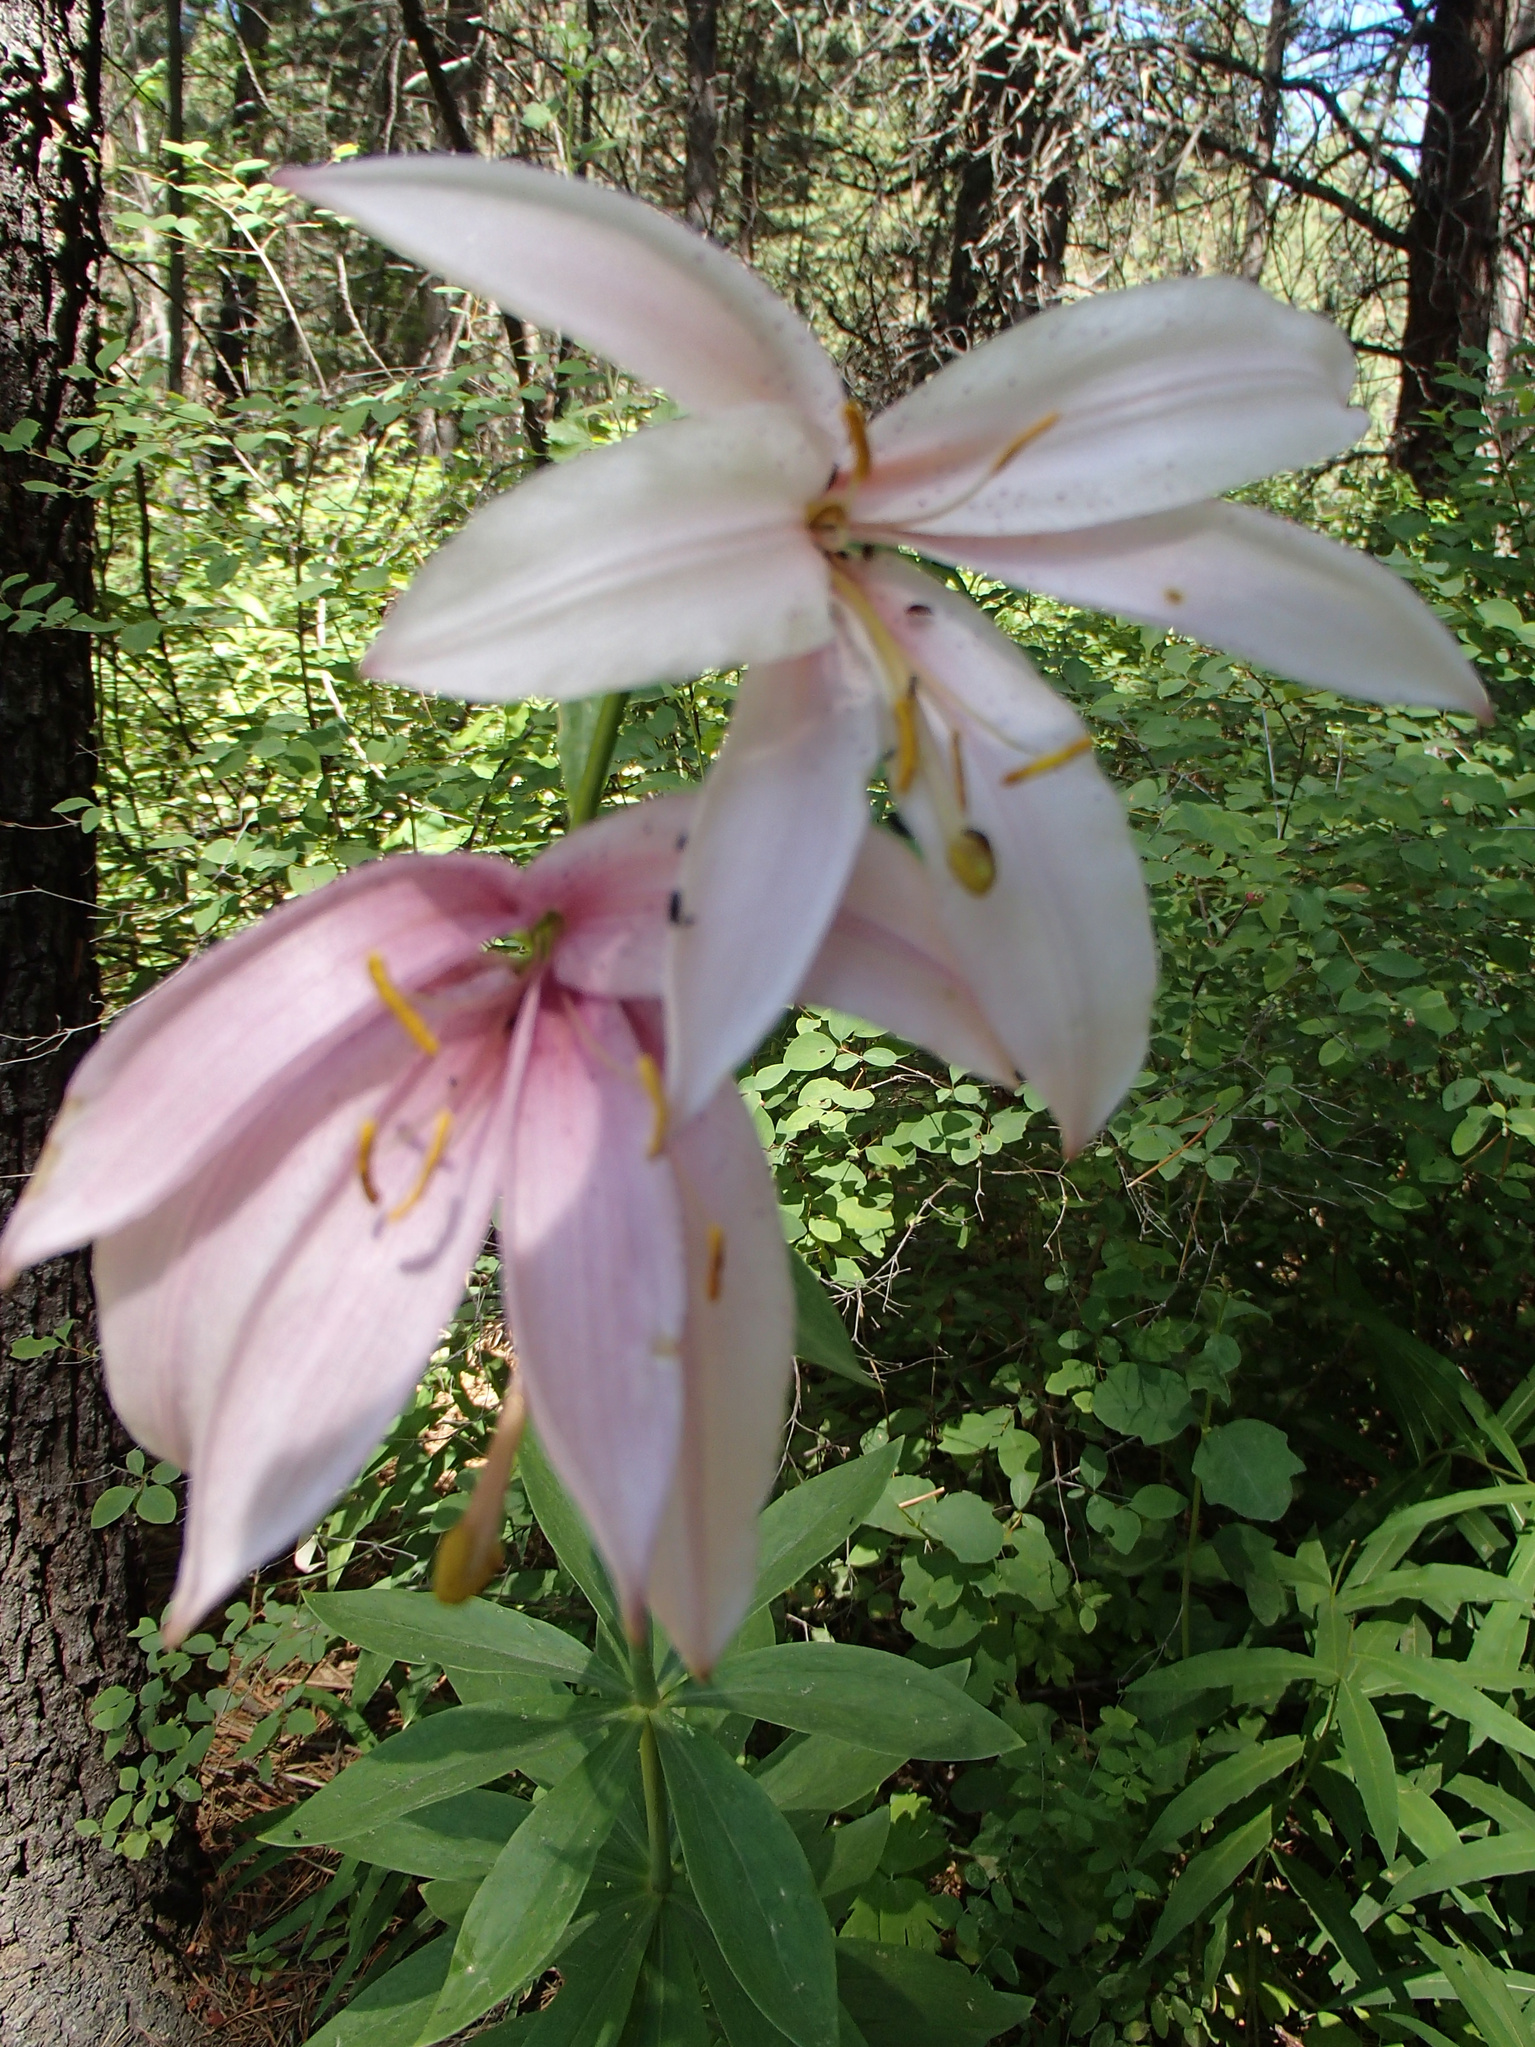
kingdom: Plantae
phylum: Tracheophyta
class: Liliopsida
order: Liliales
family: Liliaceae
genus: Lilium
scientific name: Lilium washingtonianum
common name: Washington lily
